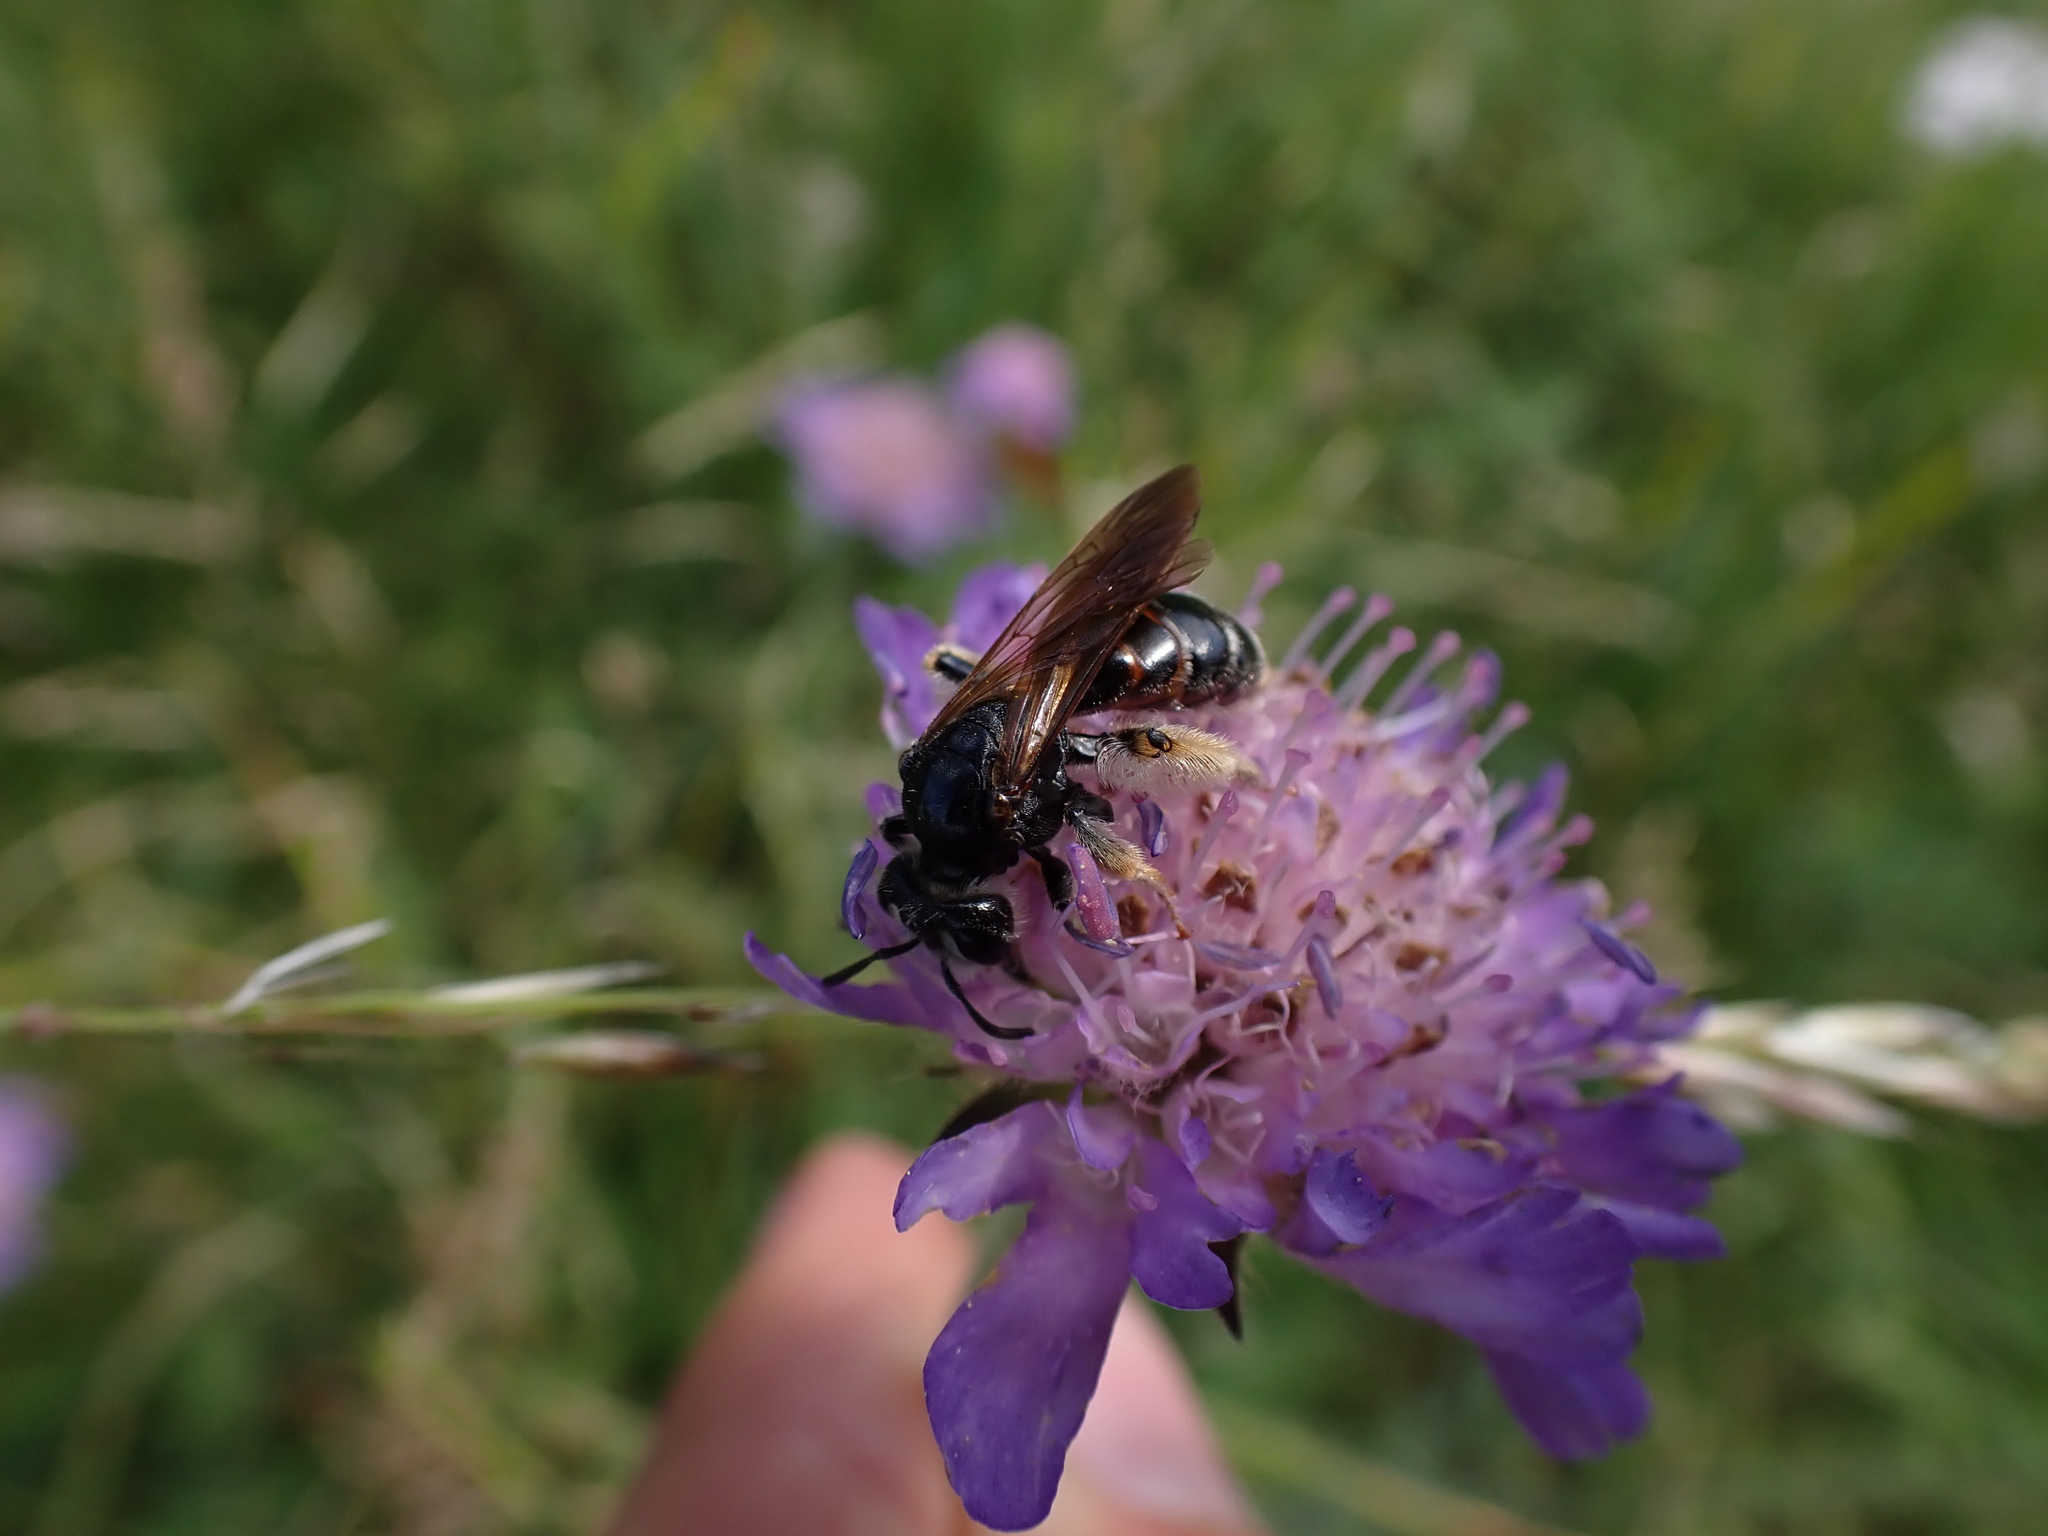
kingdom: Animalia
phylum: Arthropoda
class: Insecta
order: Hymenoptera
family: Andrenidae
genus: Andrena
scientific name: Andrena hattorfiana
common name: Large scabious mining bee
